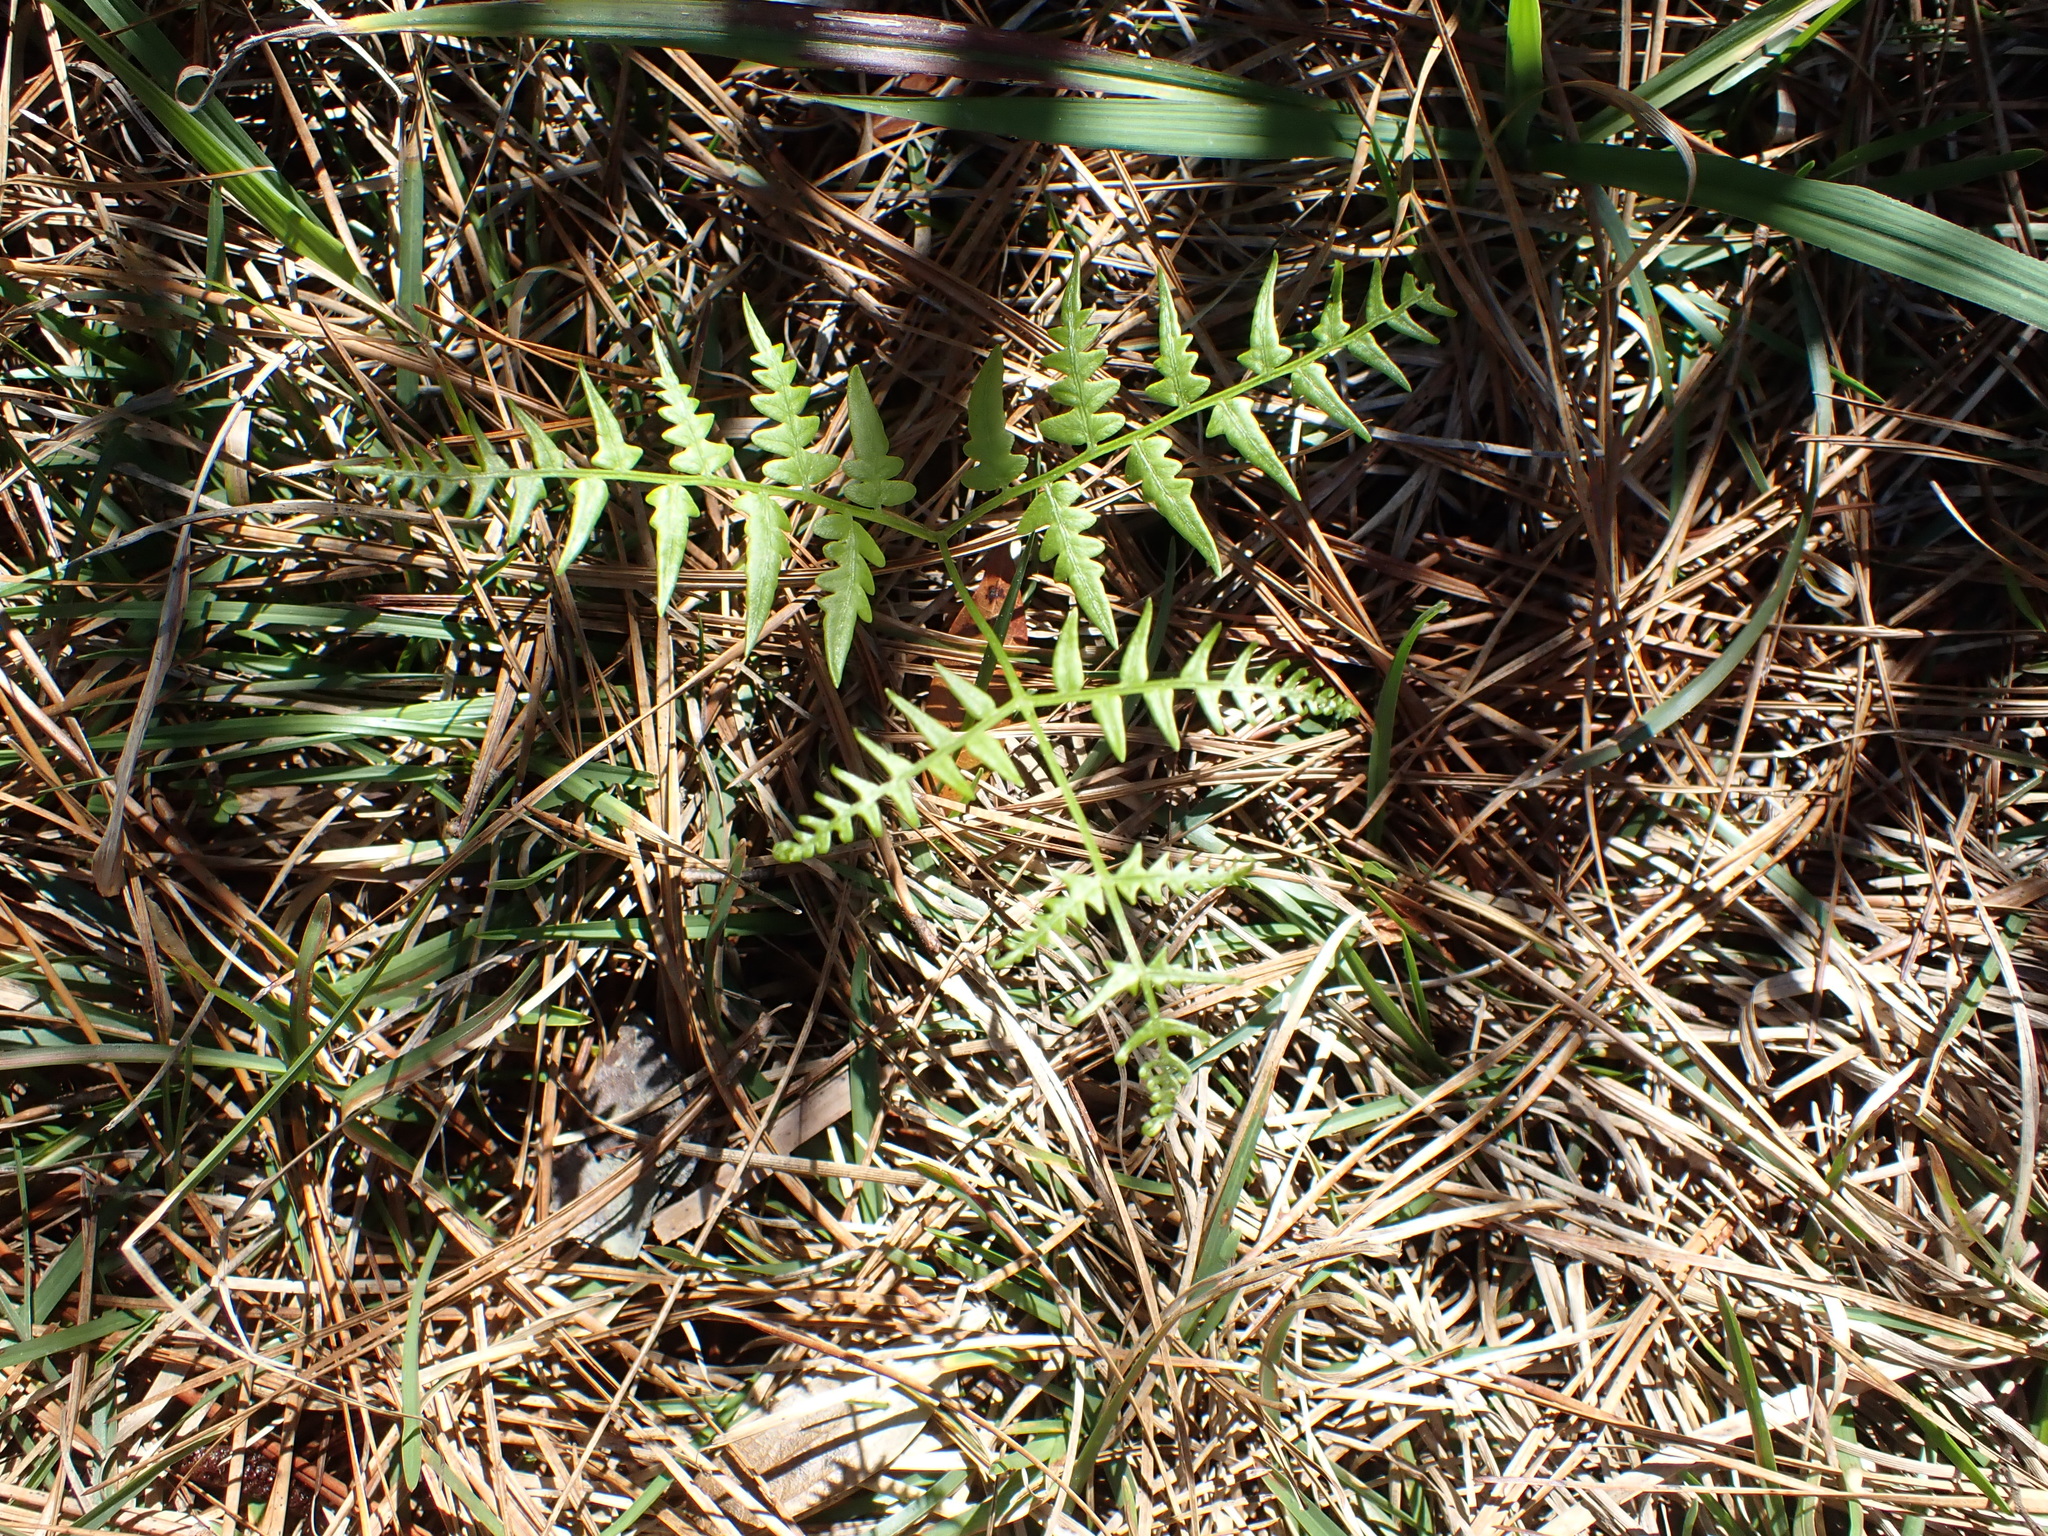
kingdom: Plantae
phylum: Tracheophyta
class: Polypodiopsida
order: Polypodiales
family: Dennstaedtiaceae
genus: Pteridium
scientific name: Pteridium
